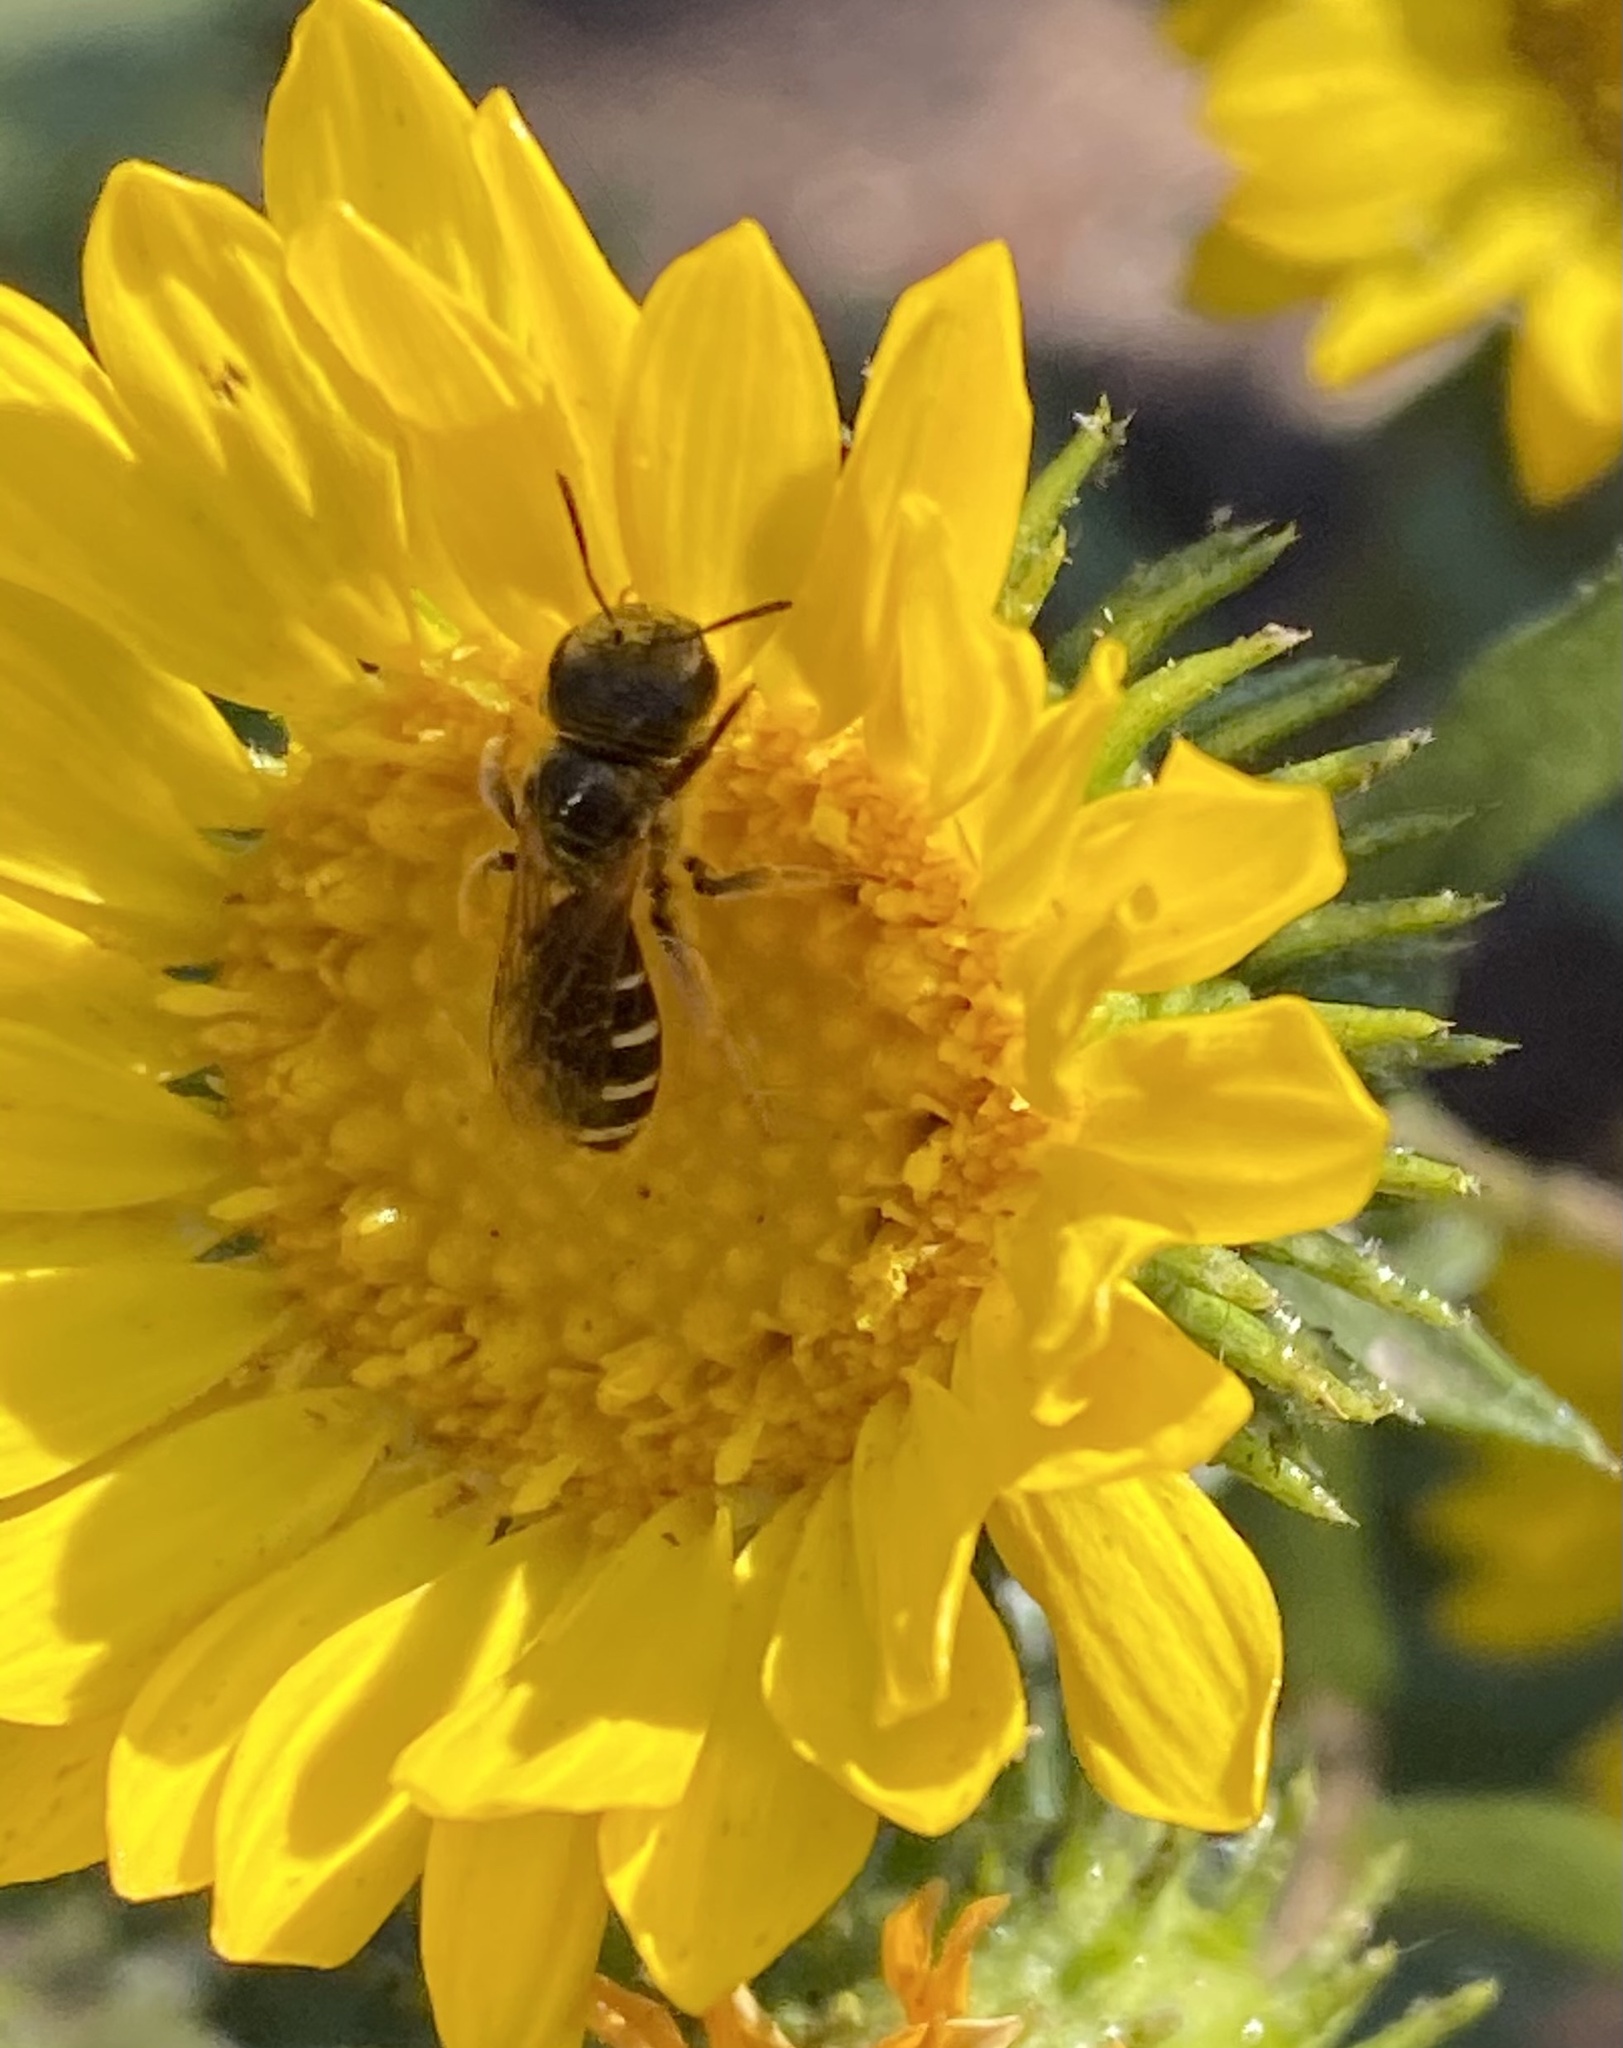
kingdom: Animalia
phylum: Arthropoda
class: Insecta
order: Hymenoptera
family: Halictidae
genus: Halictus
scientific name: Halictus ligatus
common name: Ligated furrow bee
